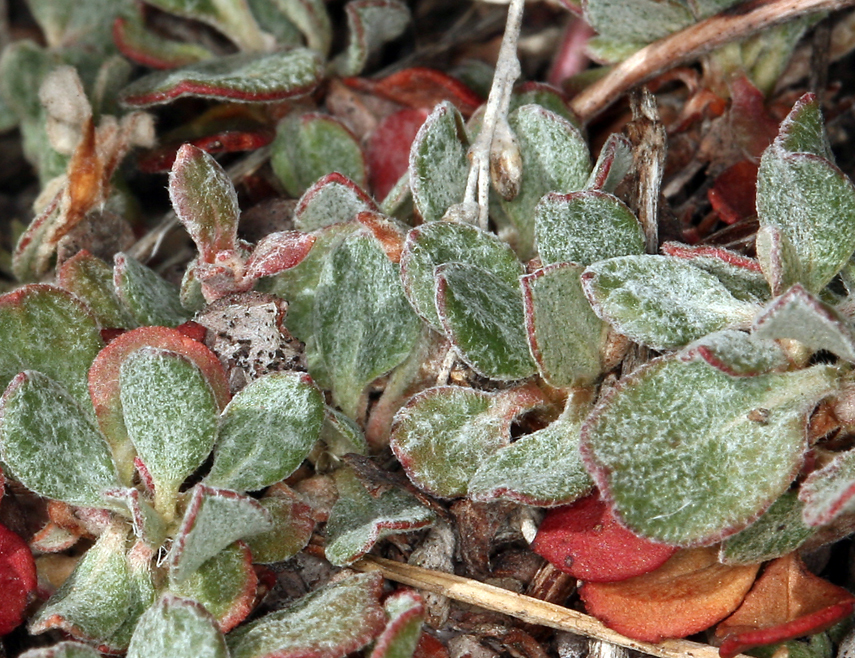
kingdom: Plantae
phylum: Tracheophyta
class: Magnoliopsida
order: Caryophyllales
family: Polygonaceae
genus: Eriogonum
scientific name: Eriogonum umbellatum
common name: Sulfur-buckwheat
